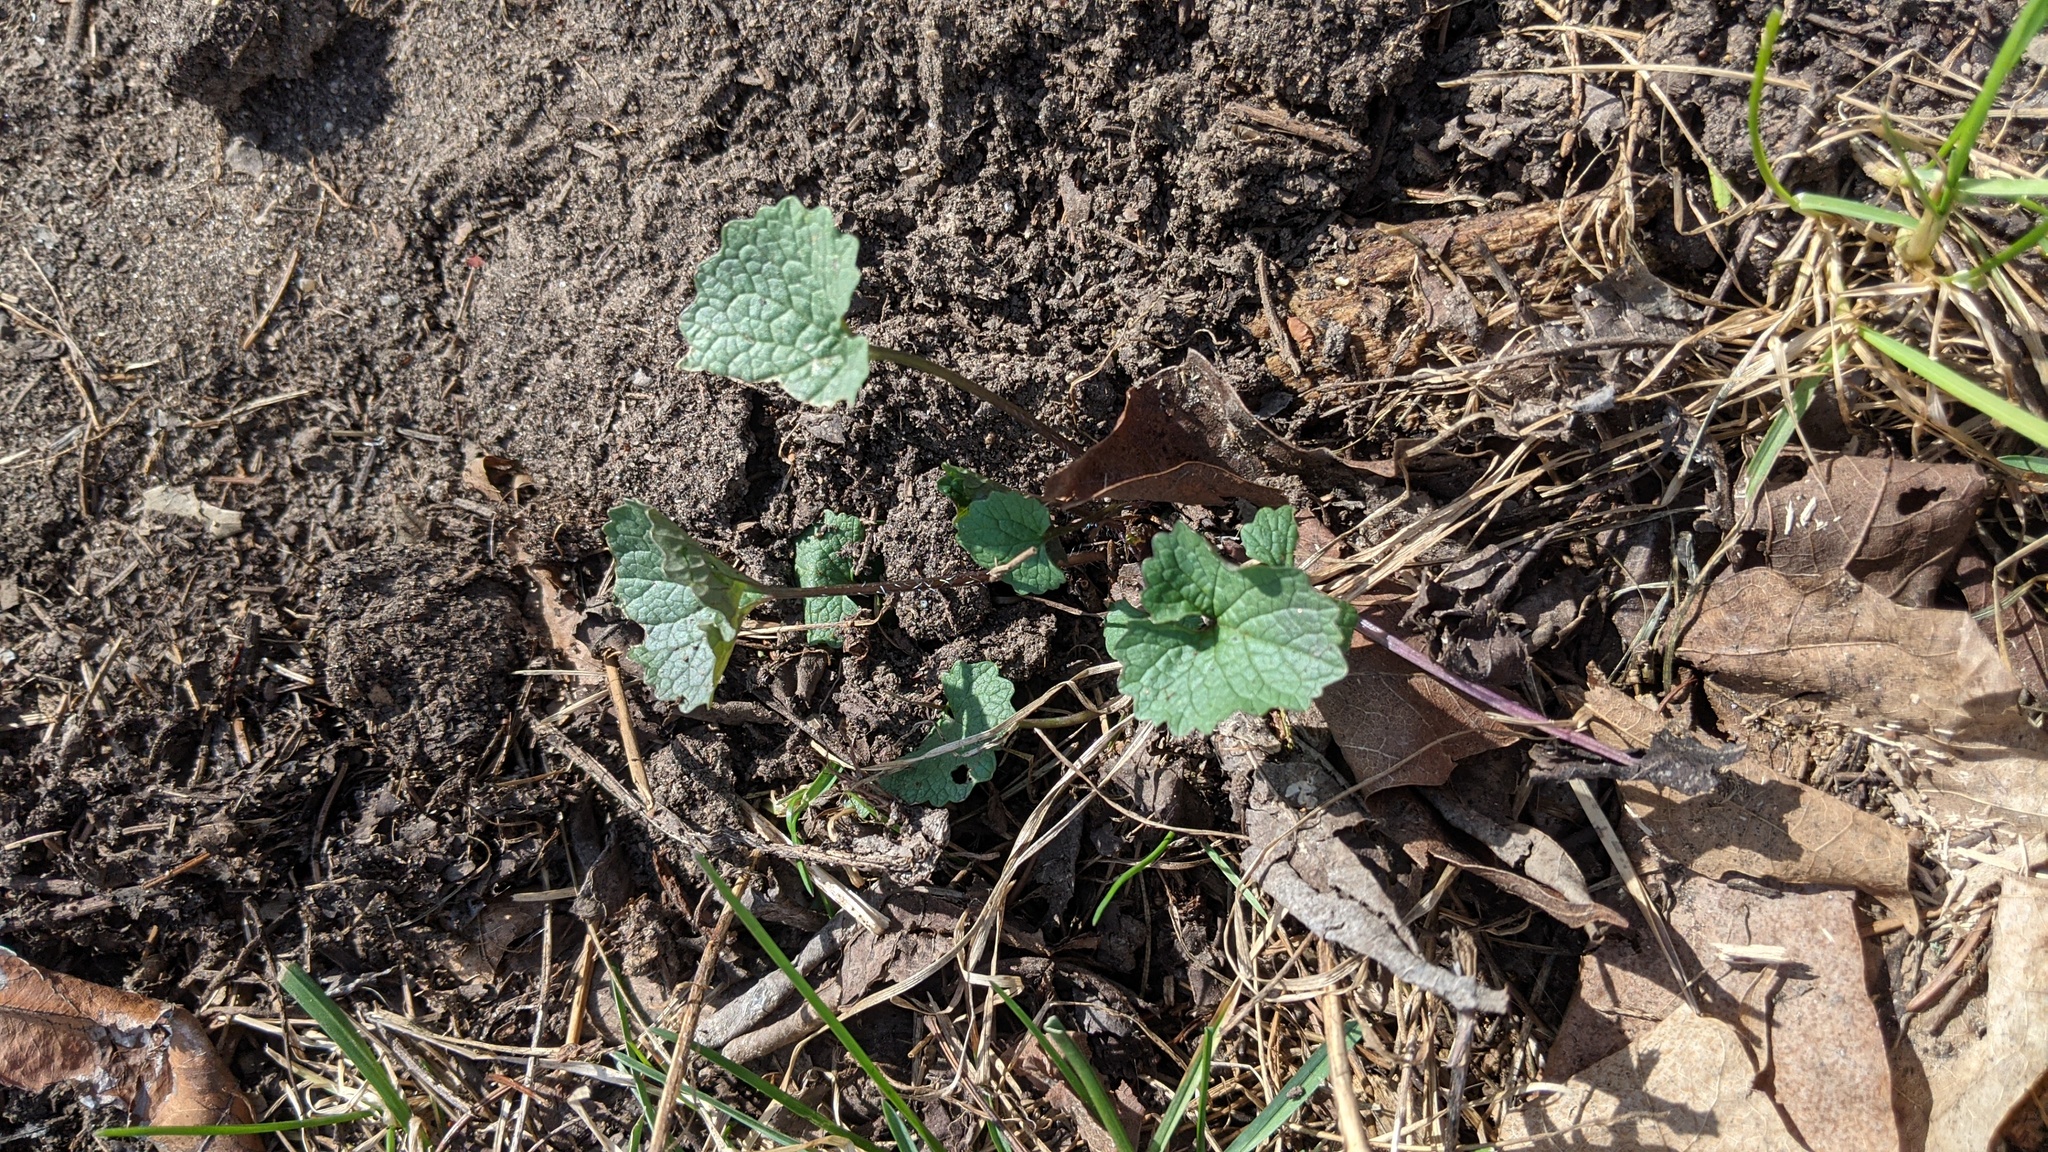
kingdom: Plantae
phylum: Tracheophyta
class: Magnoliopsida
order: Brassicales
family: Brassicaceae
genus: Alliaria
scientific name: Alliaria petiolata
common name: Garlic mustard
